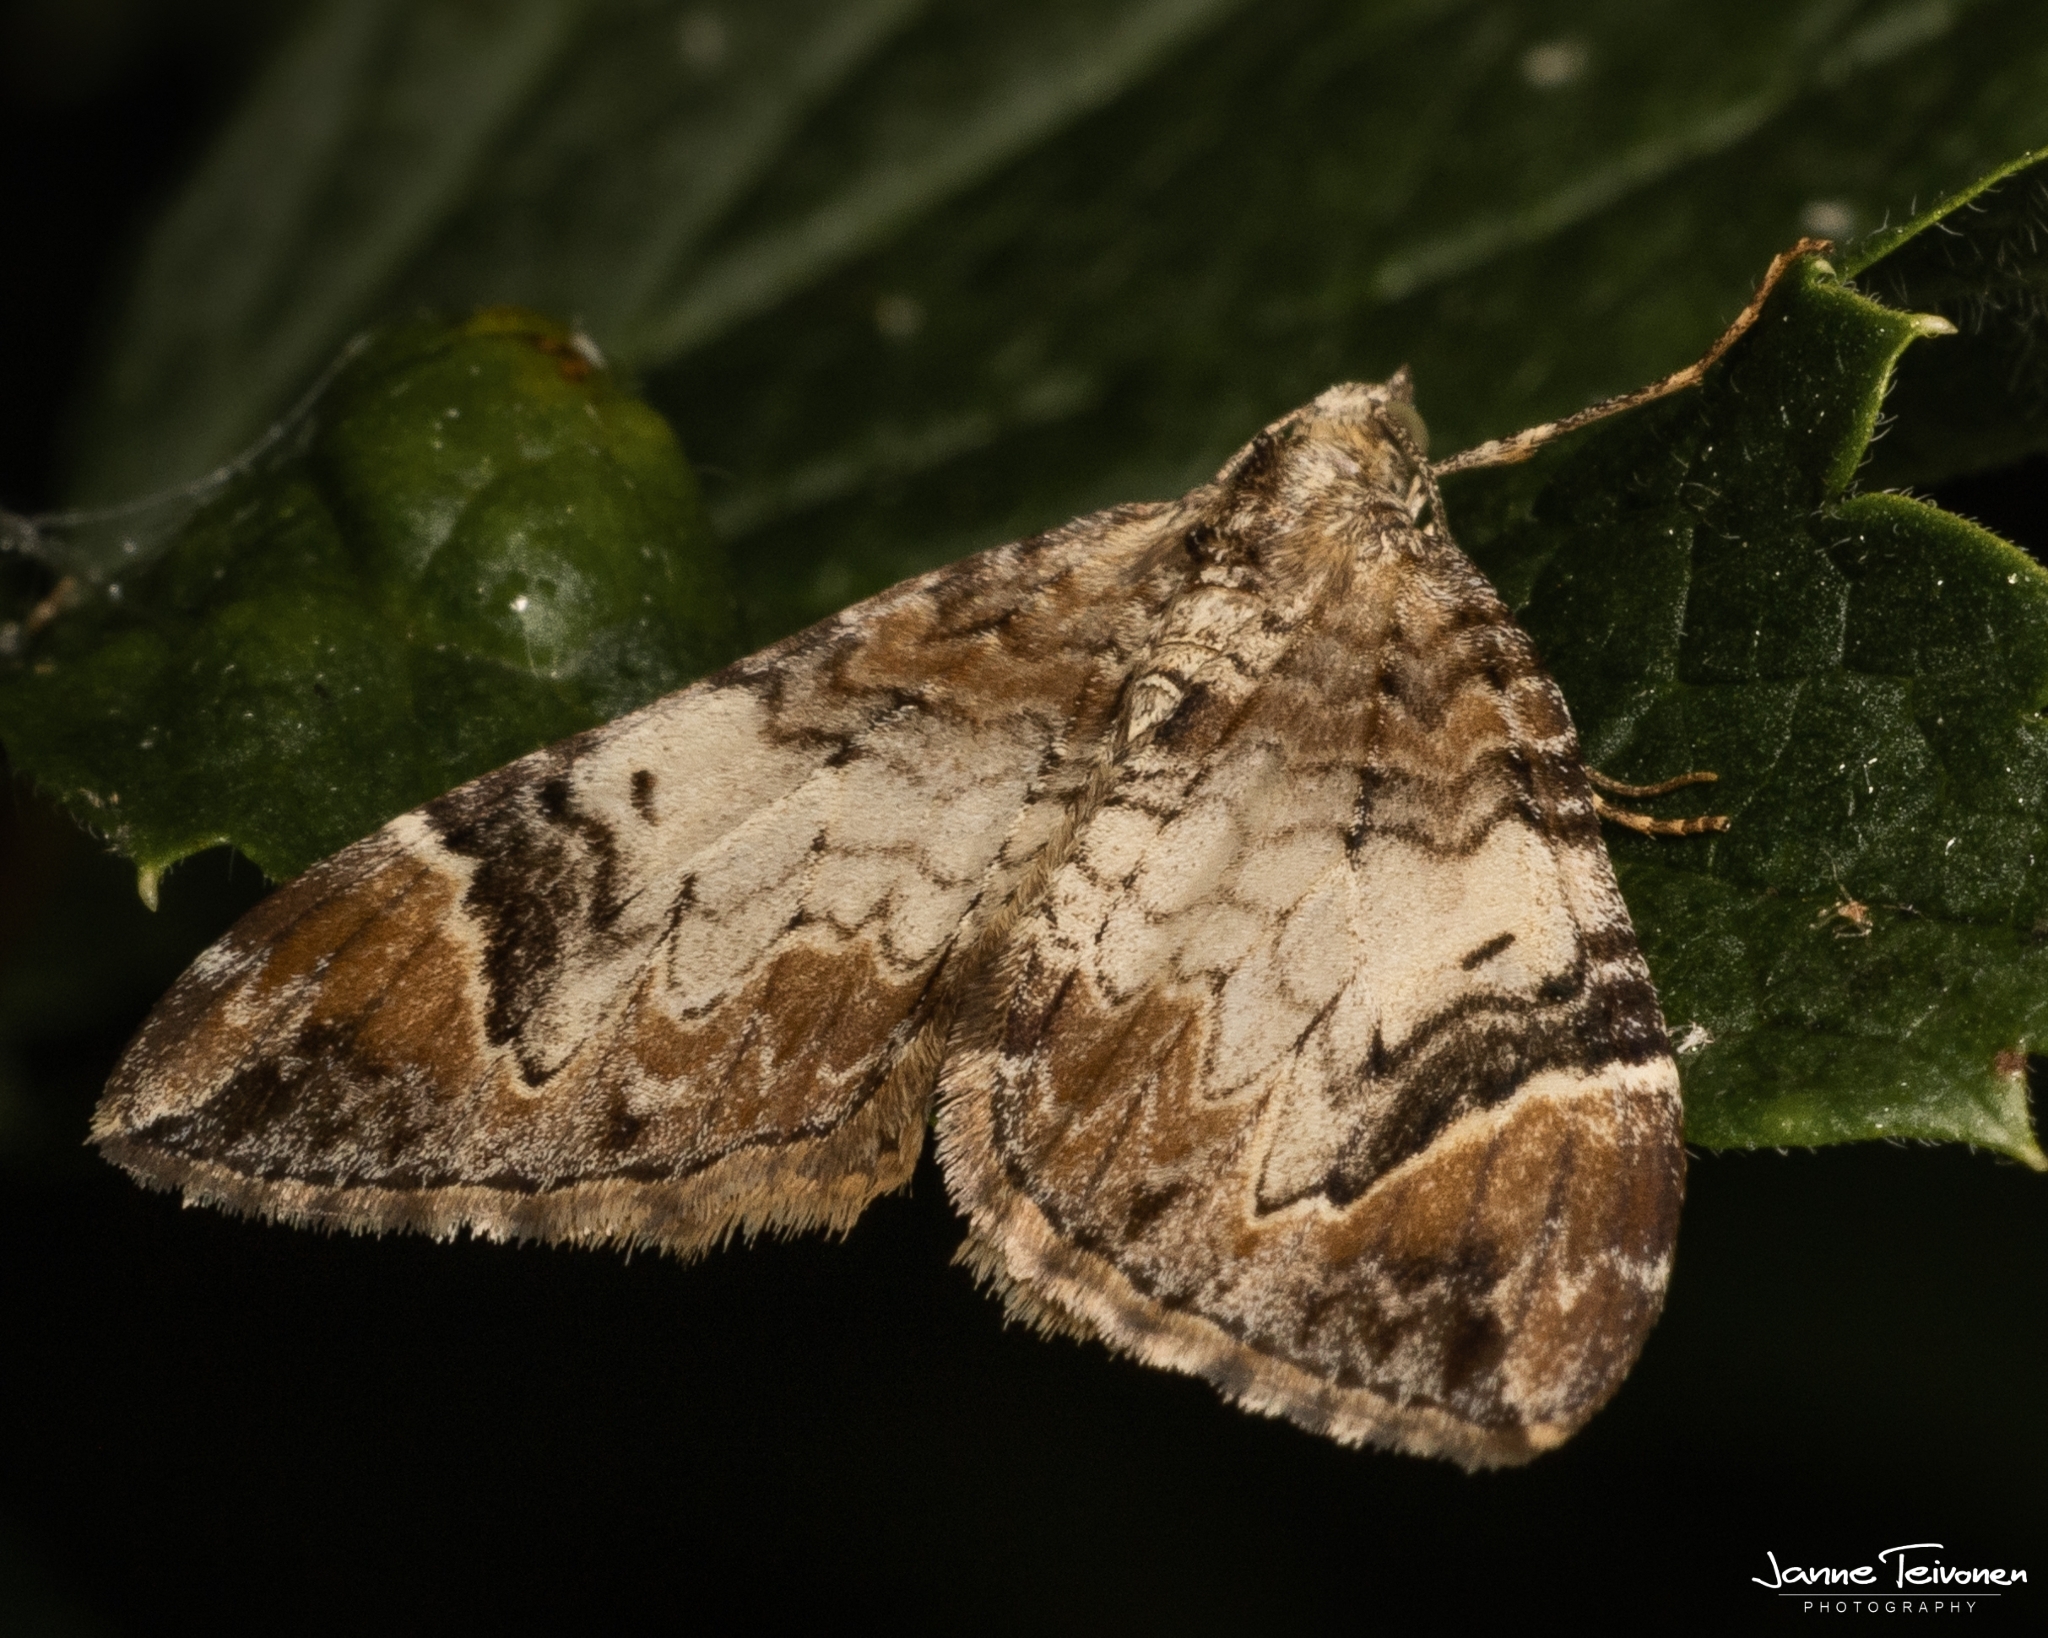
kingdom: Animalia
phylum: Arthropoda
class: Insecta
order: Lepidoptera
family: Geometridae
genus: Dysstroma
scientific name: Dysstroma truncata
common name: Common marbled carpet
